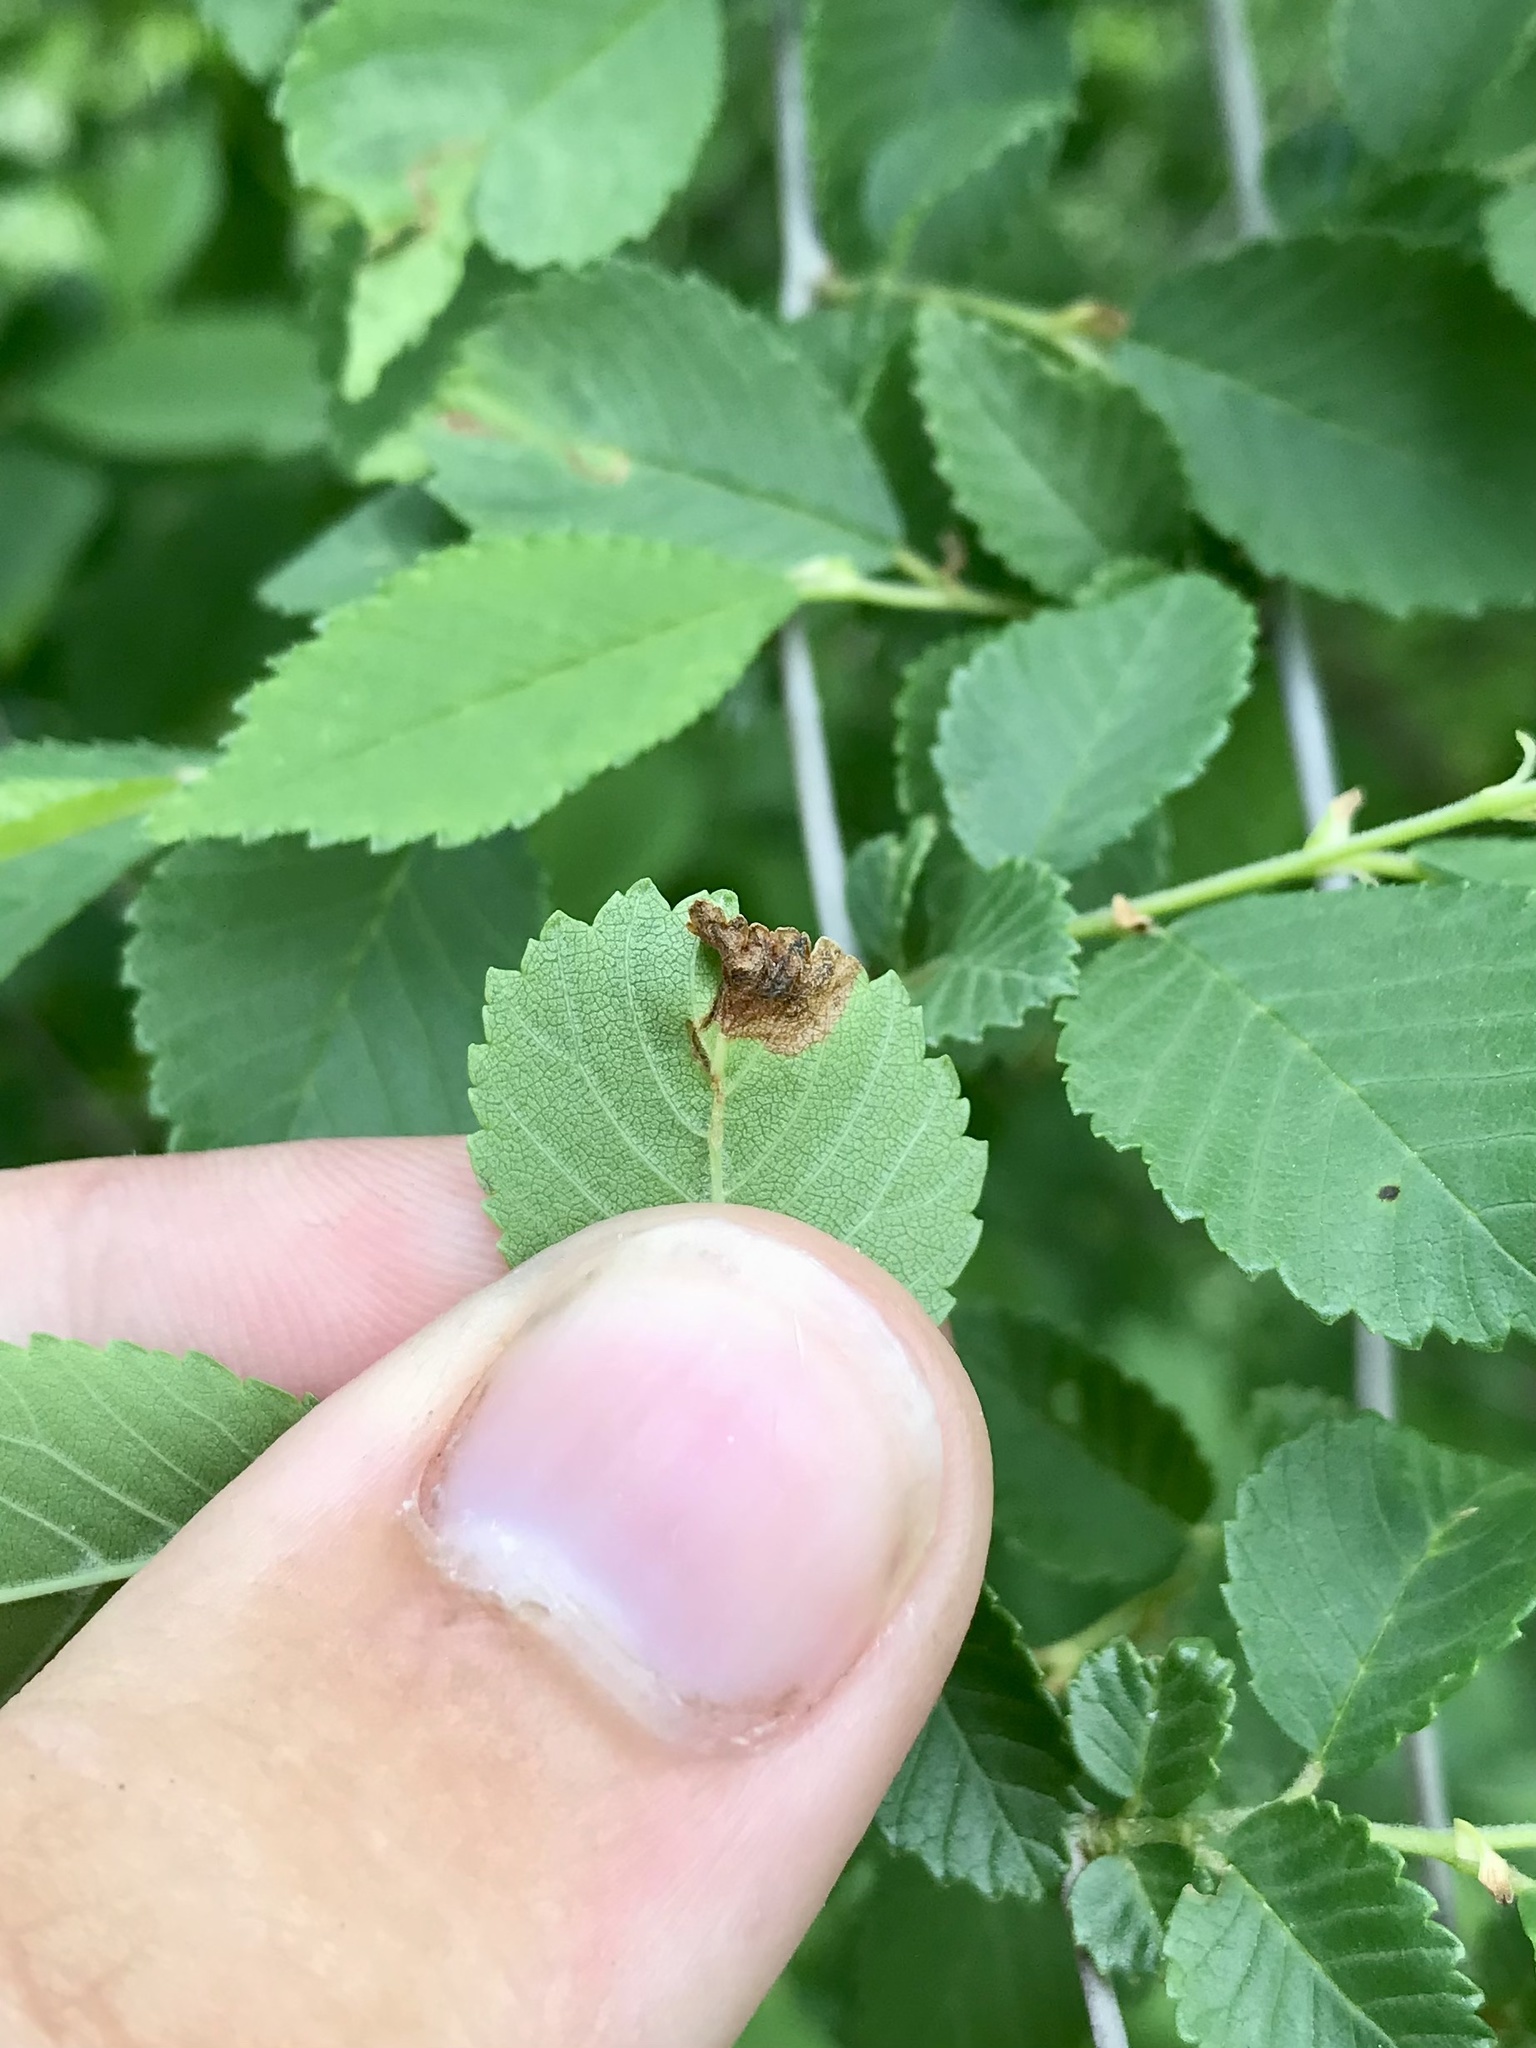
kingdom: Animalia
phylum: Arthropoda
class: Insecta
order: Coleoptera
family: Curculionidae
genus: Orchestes
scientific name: Orchestes steppensis
